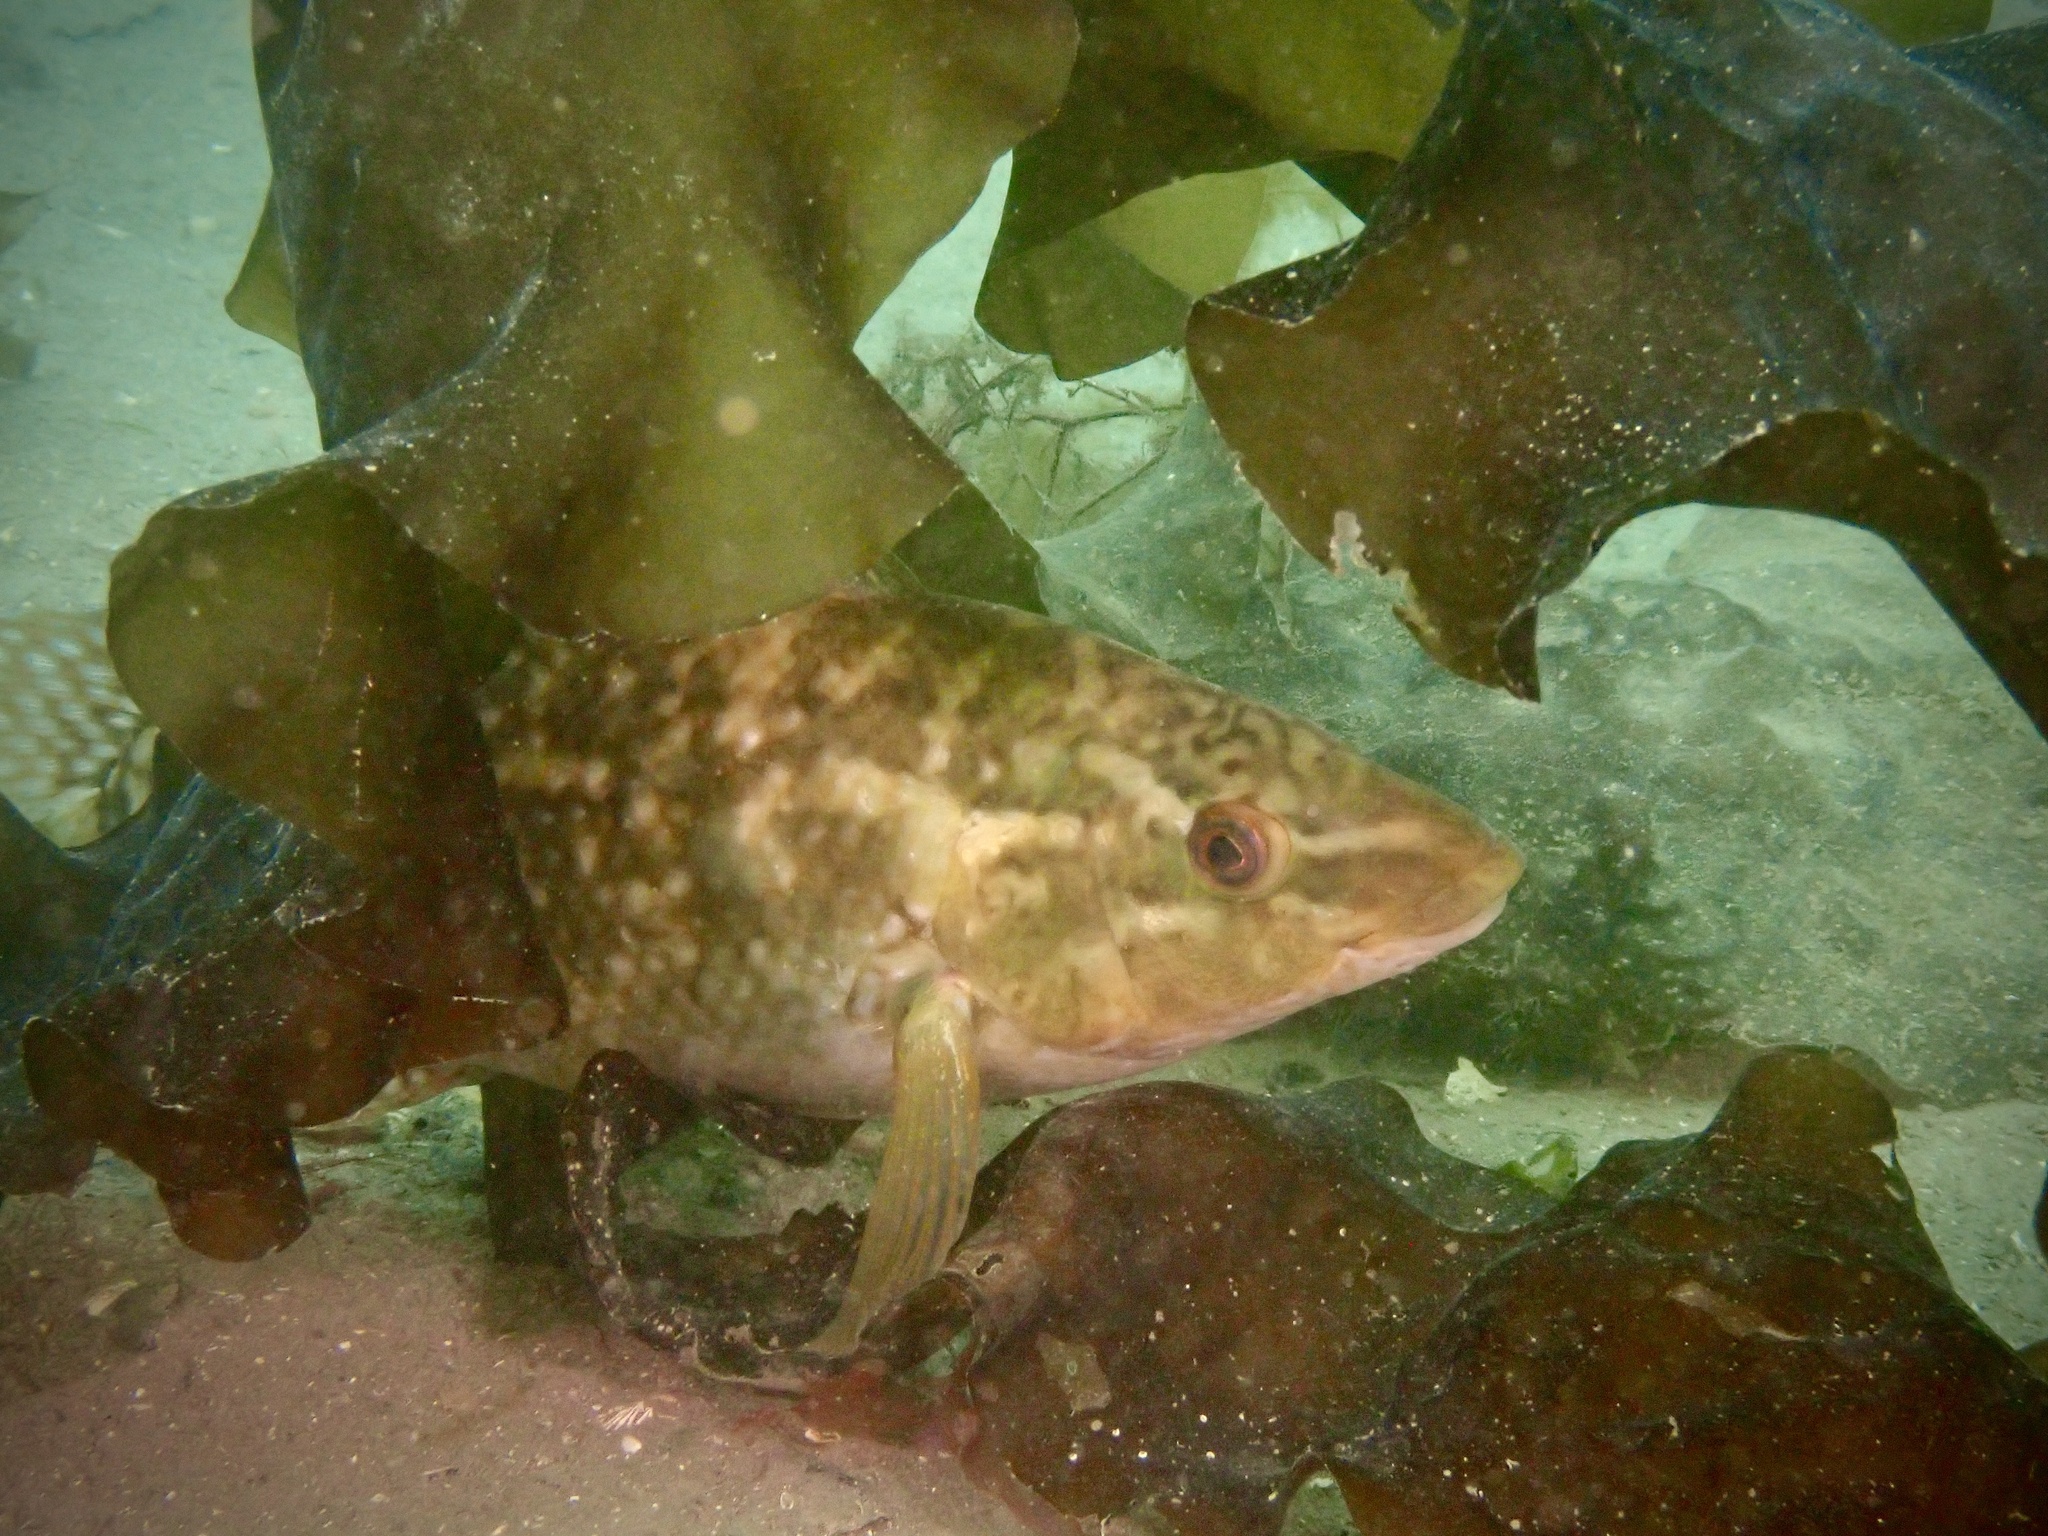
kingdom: Animalia
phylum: Chordata
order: Perciformes
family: Labridae
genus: Labrus
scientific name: Labrus bergylta
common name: Ballan wrasse
